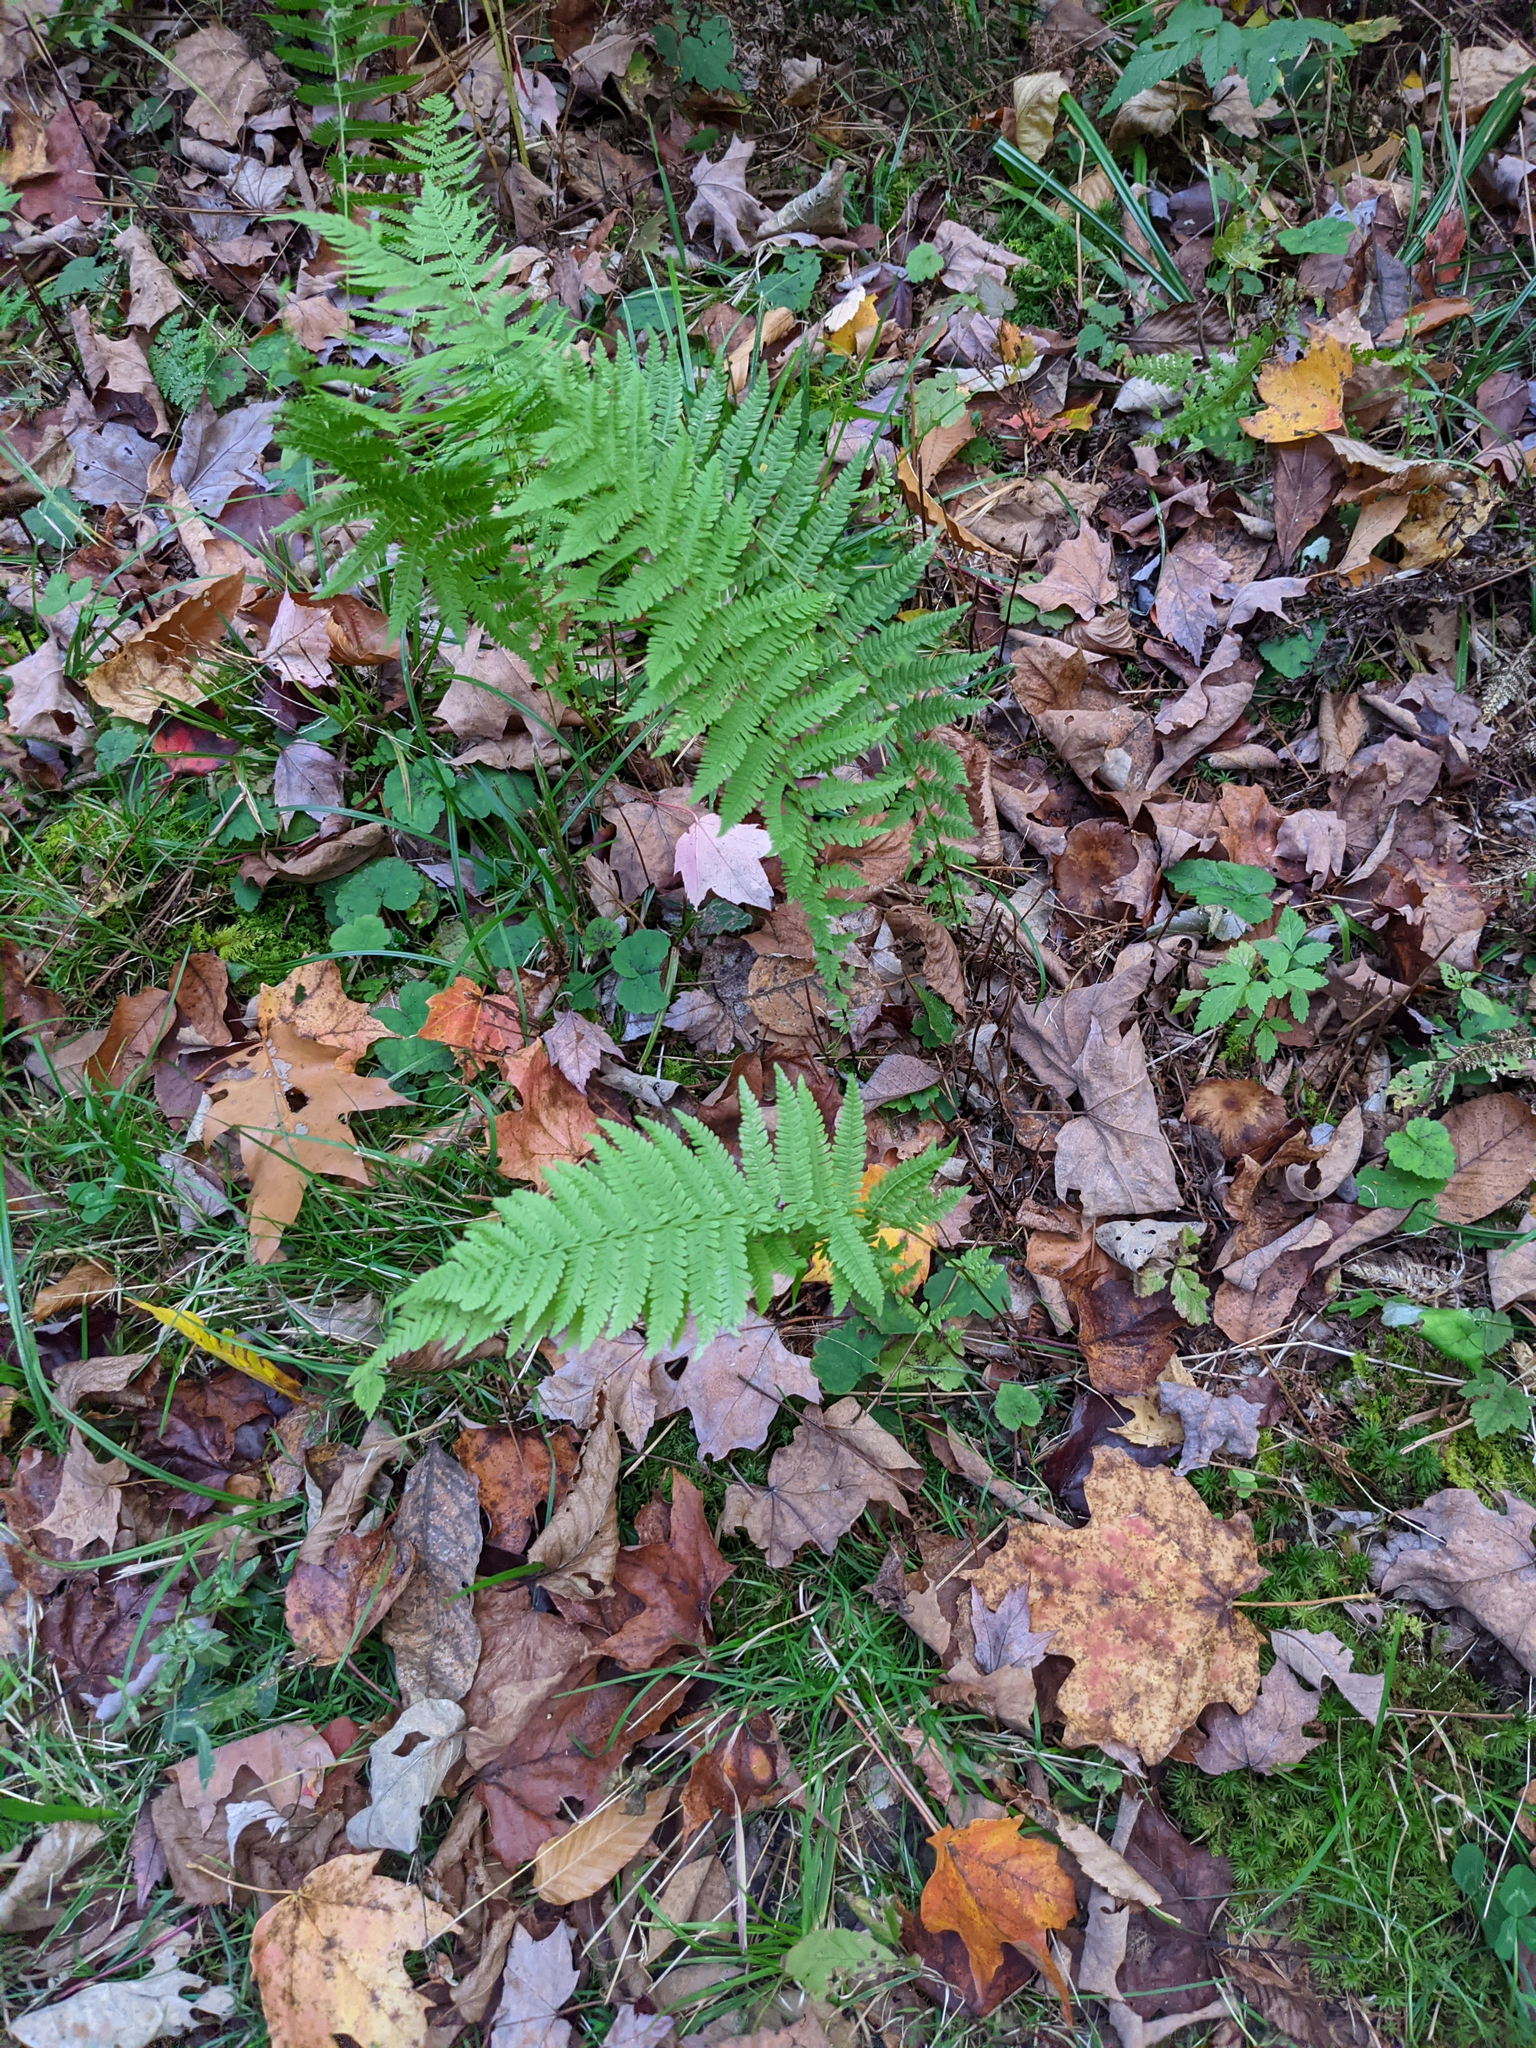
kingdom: Plantae
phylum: Tracheophyta
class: Polypodiopsida
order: Polypodiales
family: Thelypteridaceae
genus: Amauropelta
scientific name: Amauropelta noveboracensis
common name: New york fern
